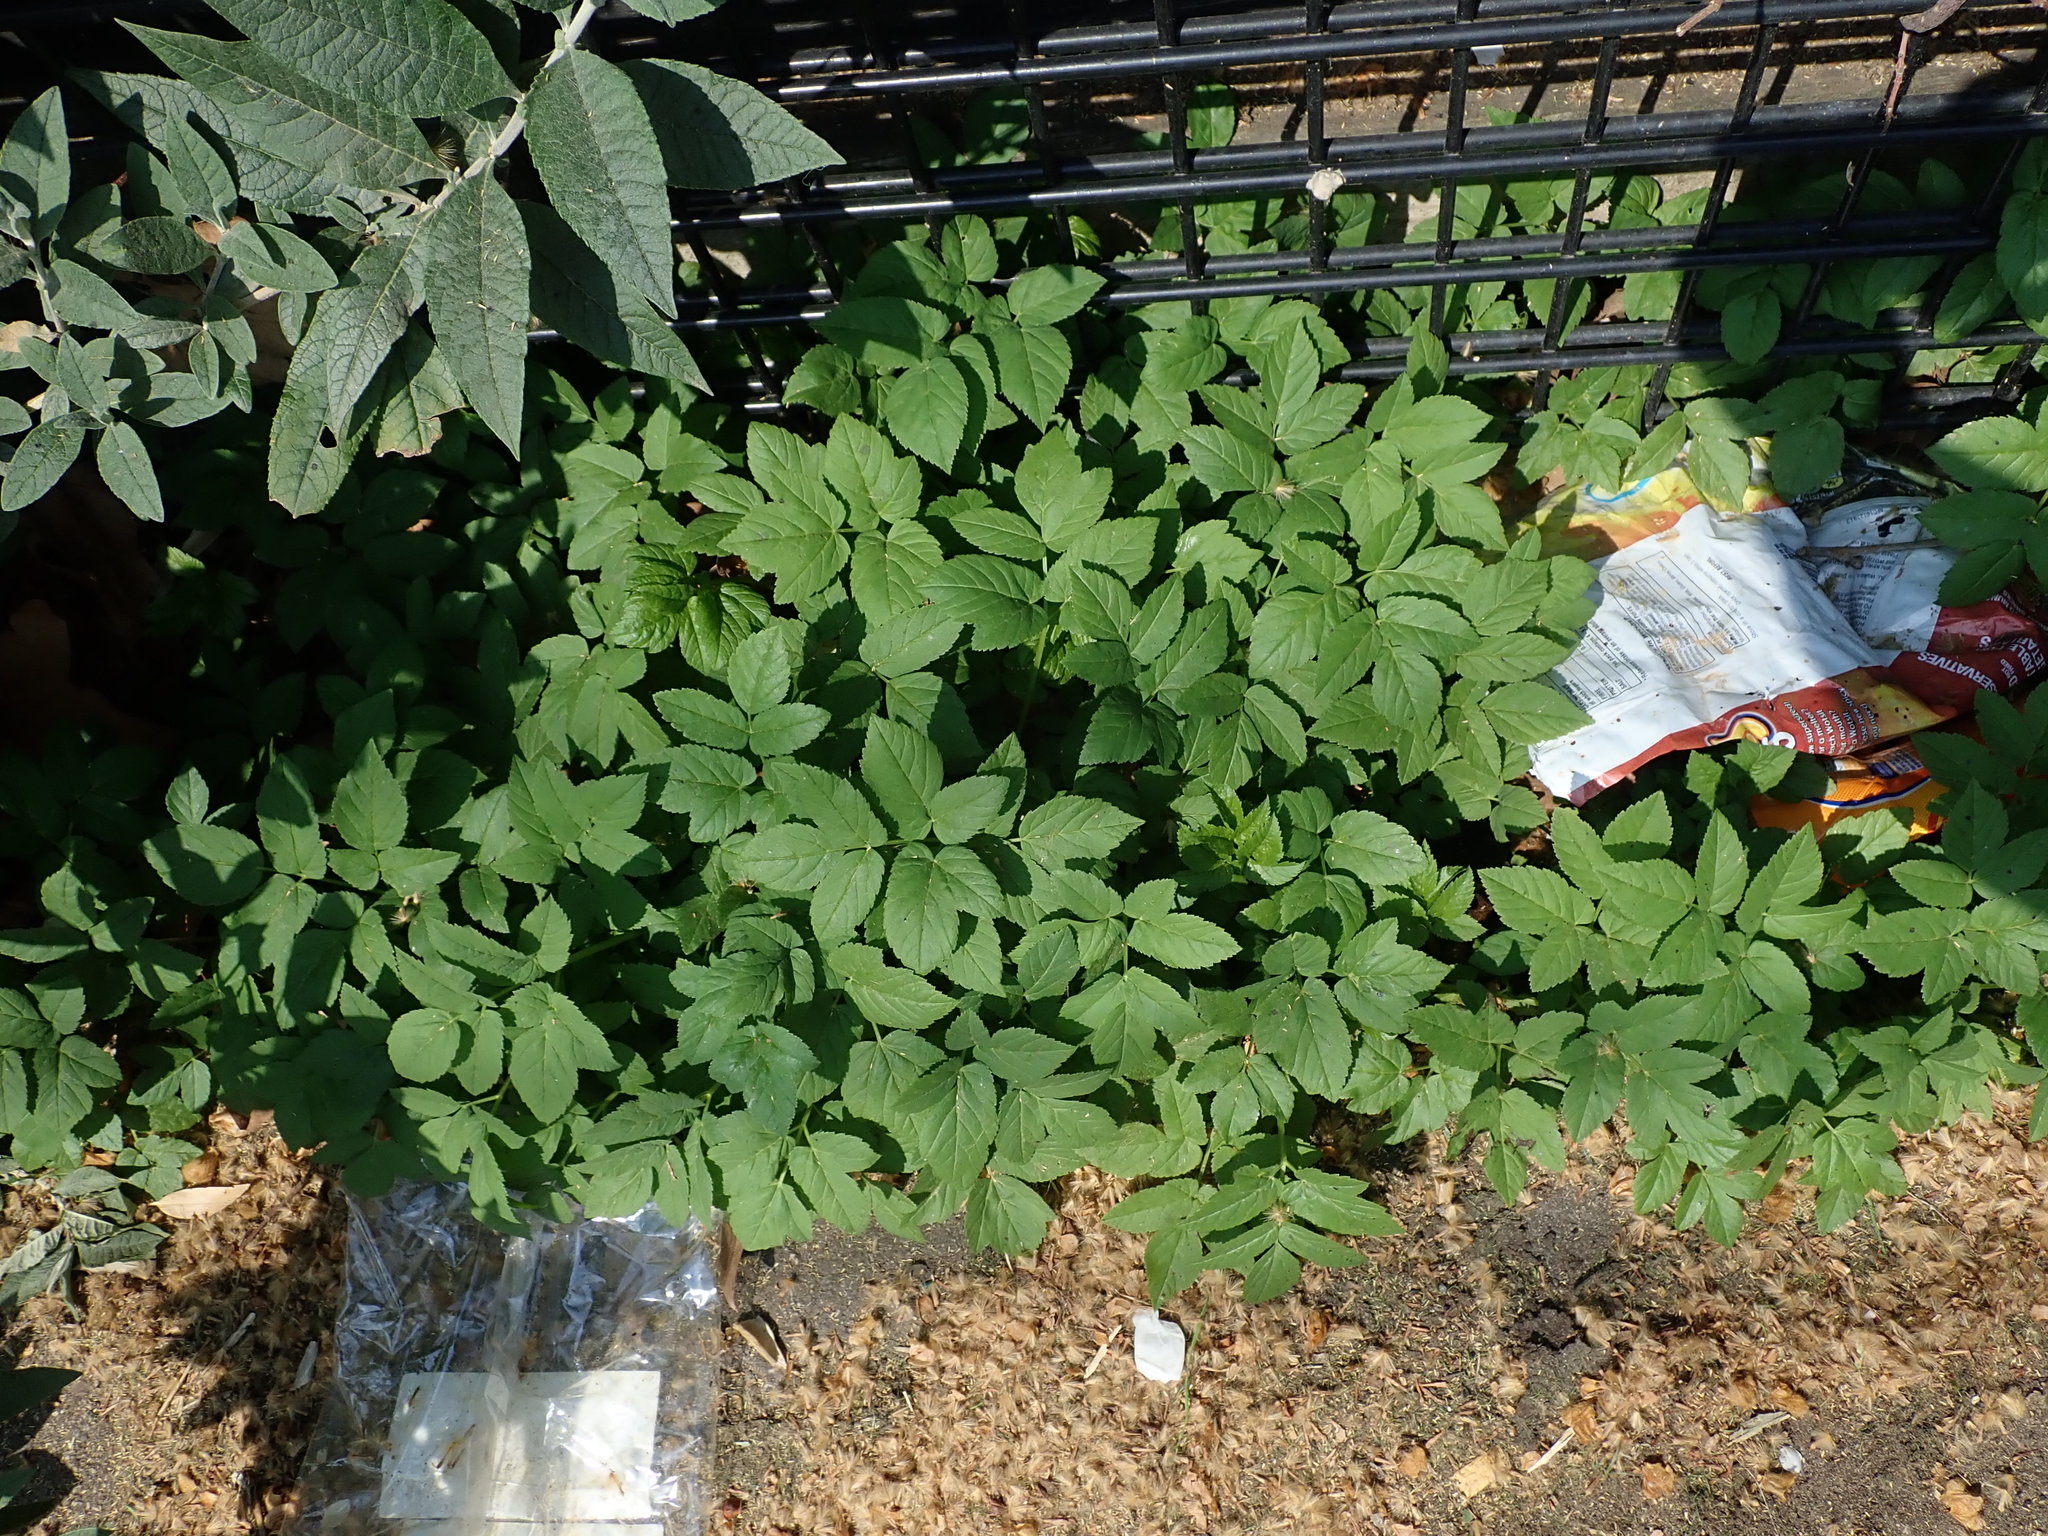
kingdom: Plantae
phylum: Tracheophyta
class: Magnoliopsida
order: Apiales
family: Apiaceae
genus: Aegopodium
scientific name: Aegopodium podagraria
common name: Ground-elder
